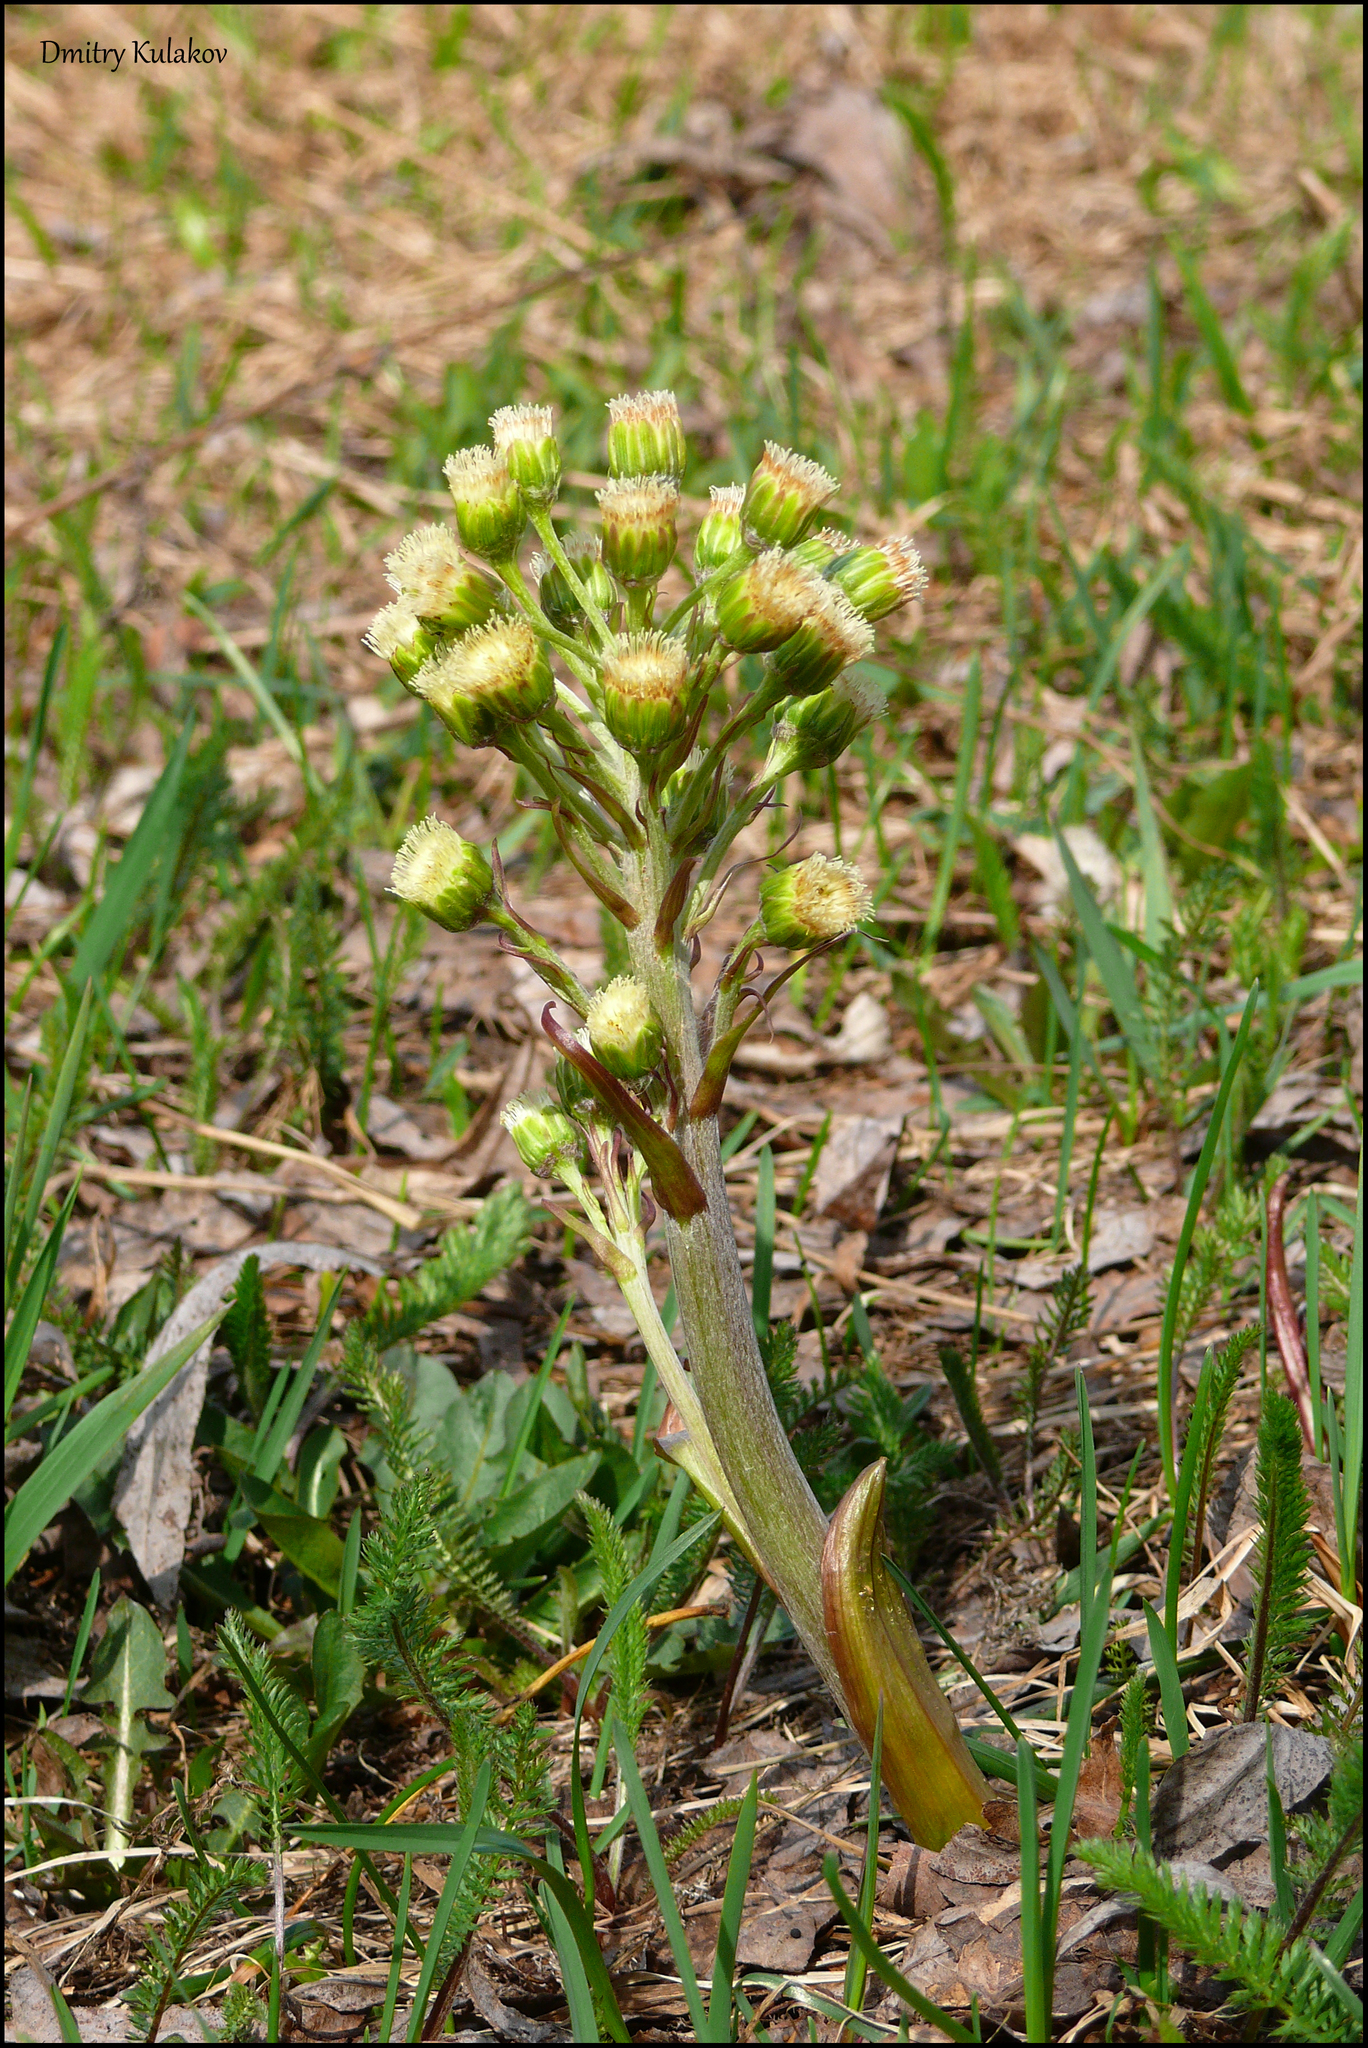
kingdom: Plantae
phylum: Tracheophyta
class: Magnoliopsida
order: Asterales
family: Asteraceae
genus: Petasites
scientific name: Petasites spurius
